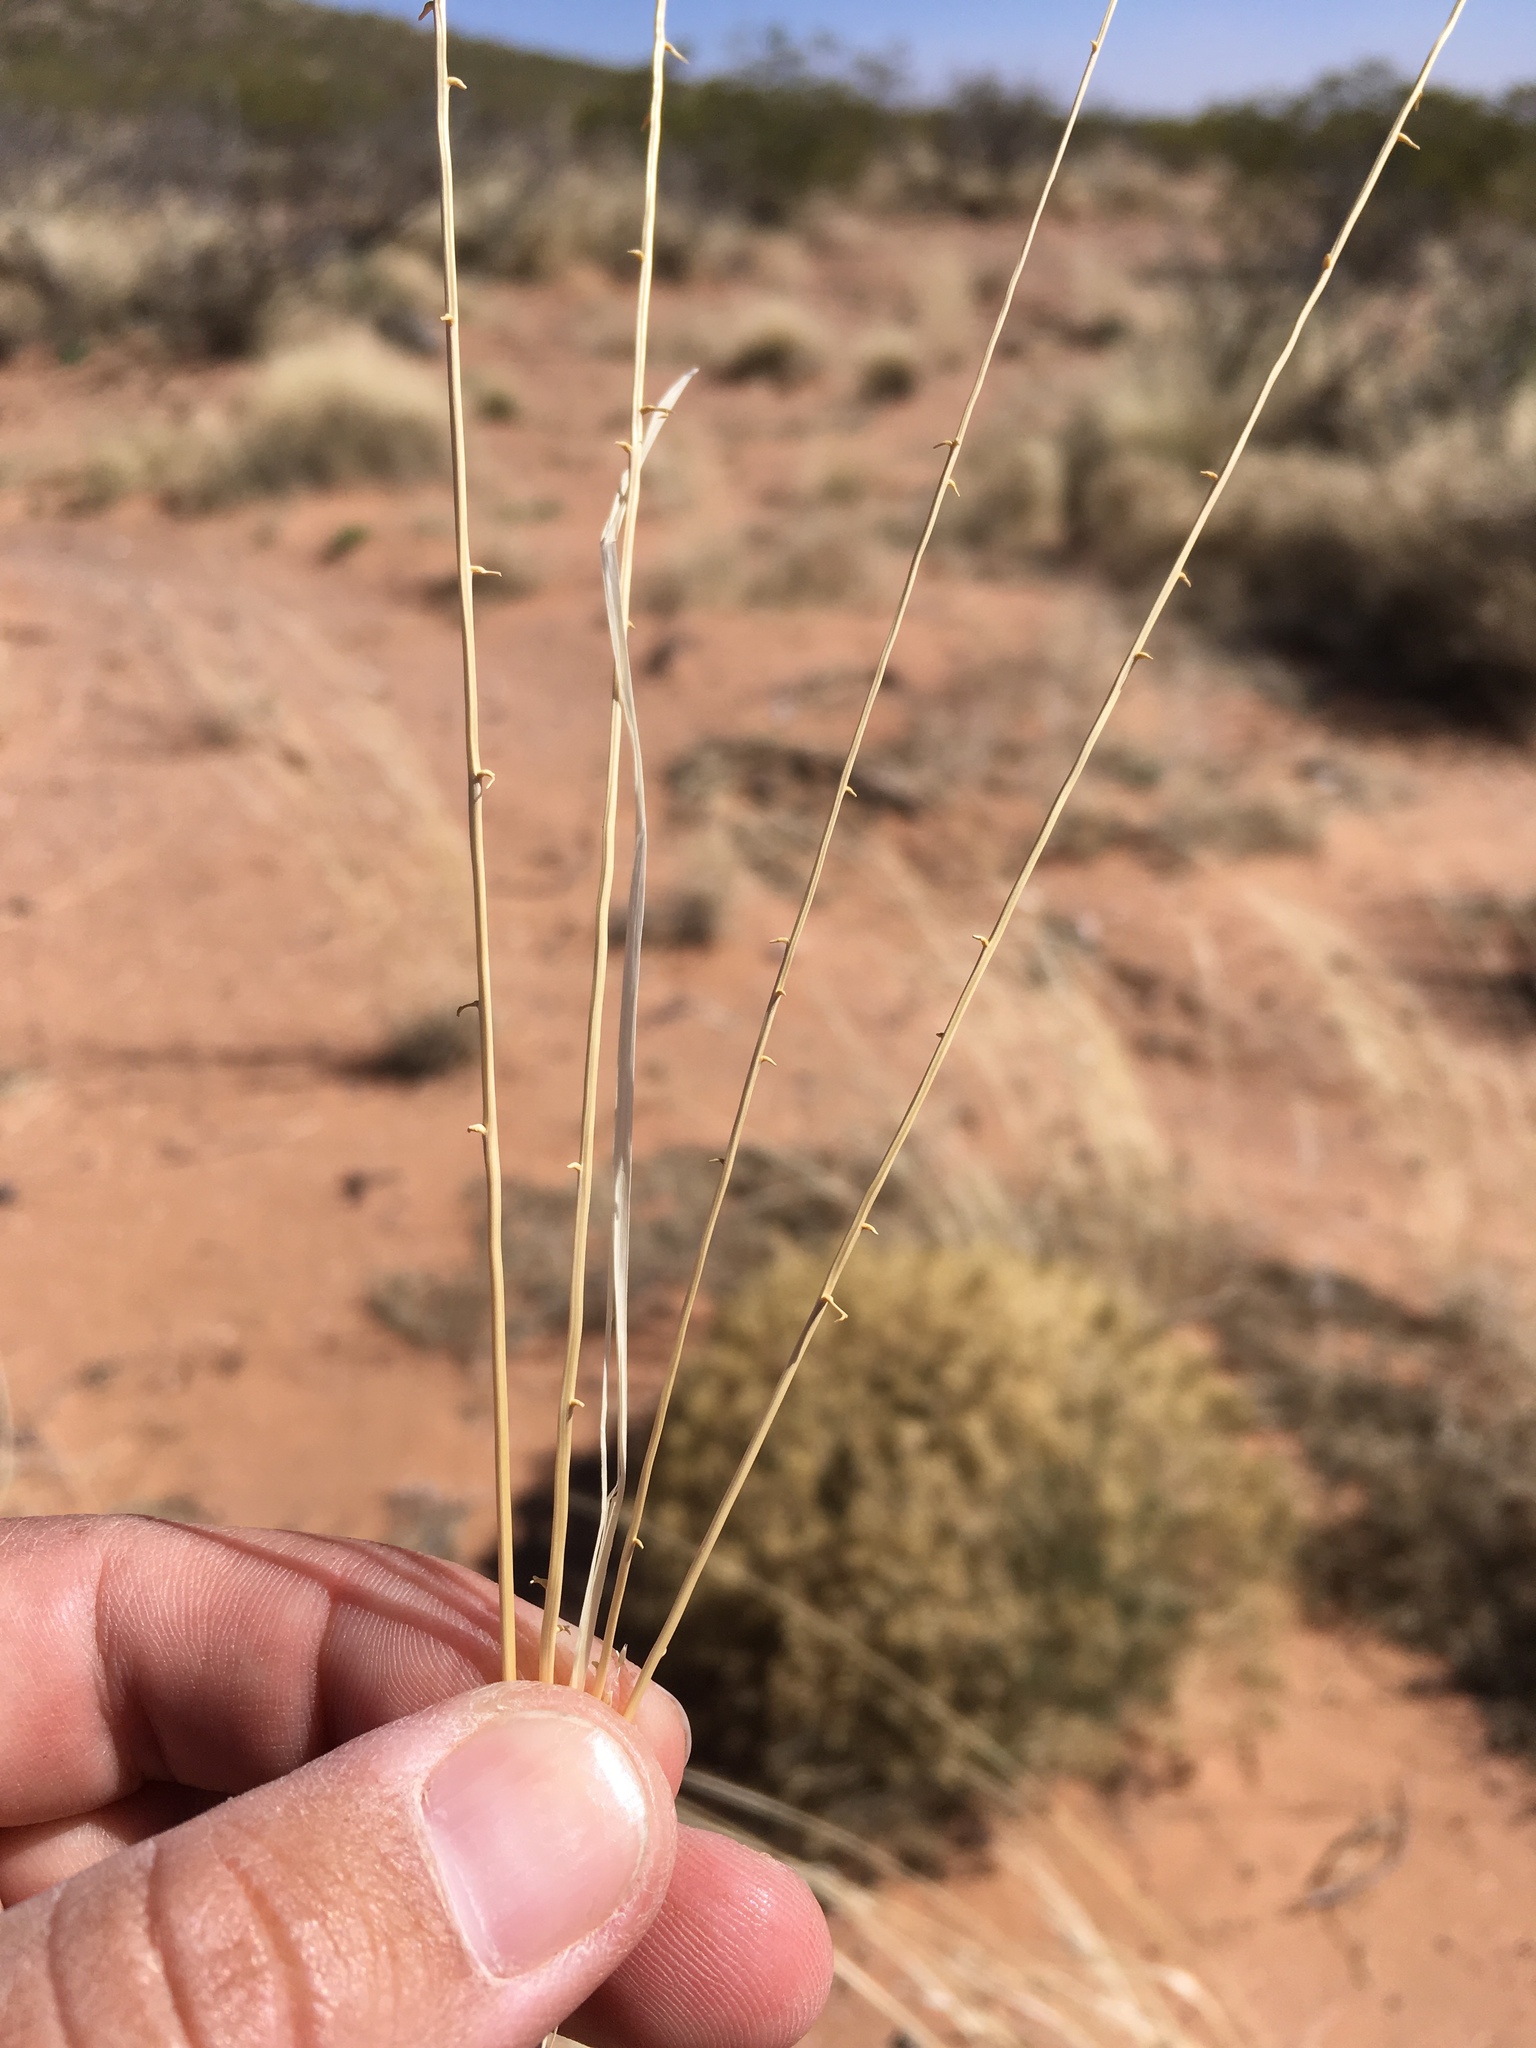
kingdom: Plantae
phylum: Tracheophyta
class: Liliopsida
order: Poales
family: Poaceae
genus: Sporobolus
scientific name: Sporobolus flexuosus
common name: Mesa dropseed
